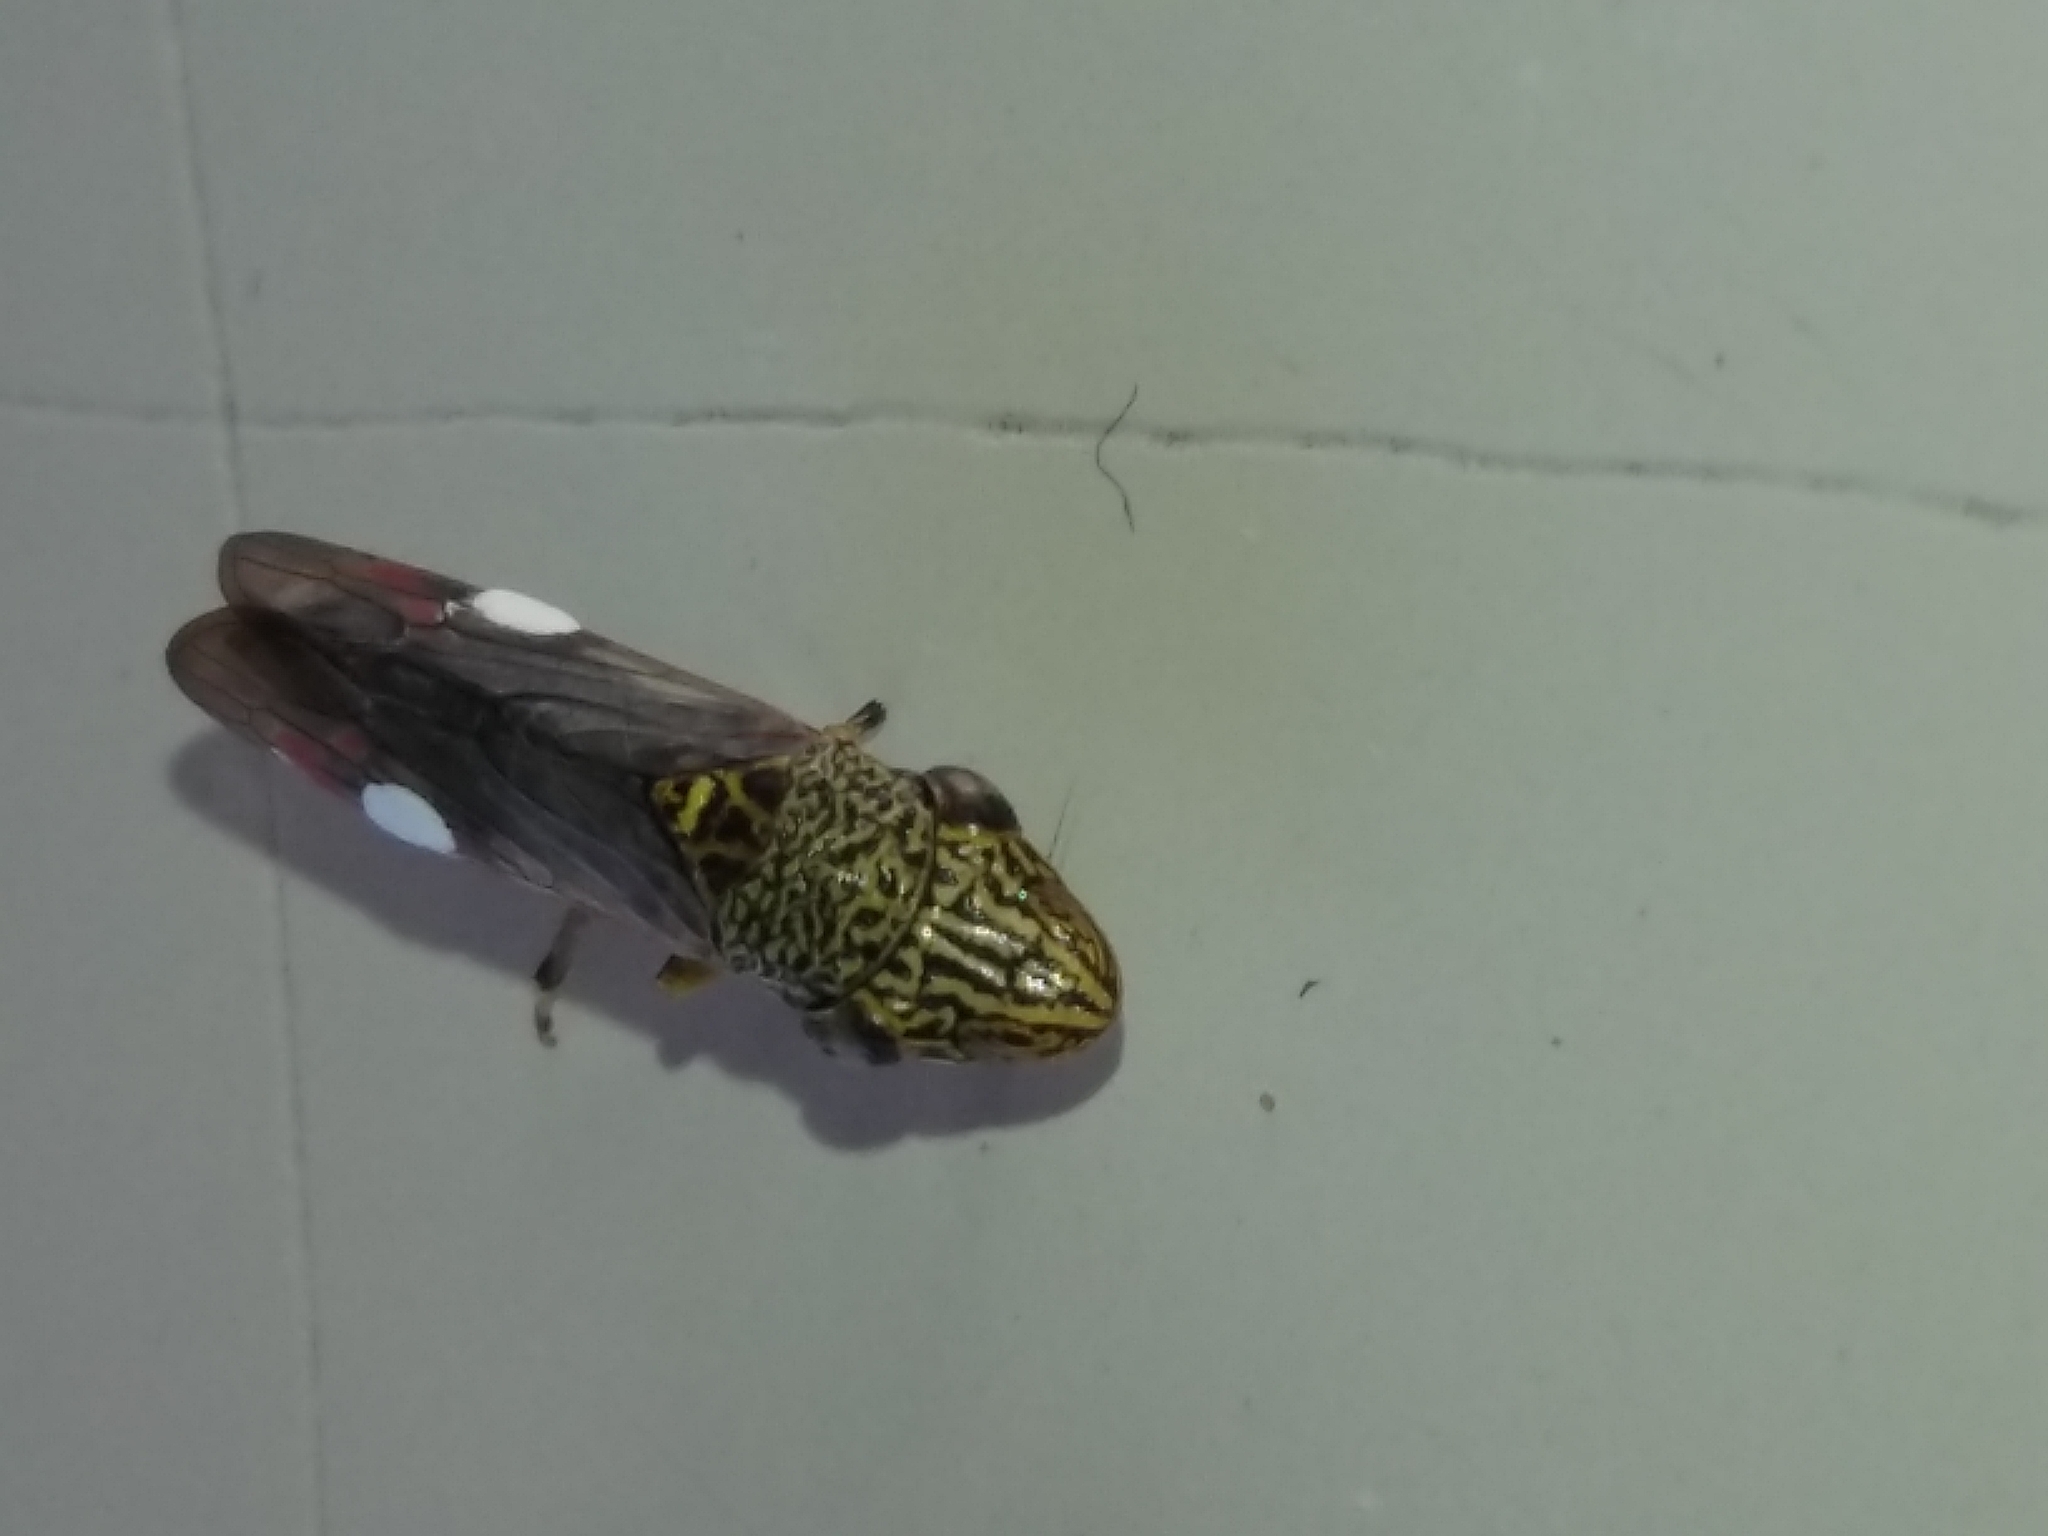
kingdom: Animalia
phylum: Arthropoda
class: Insecta
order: Hemiptera
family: Cicadellidae
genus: Homalodisca
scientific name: Homalodisca liturata
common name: Lacertate sharpshooter
